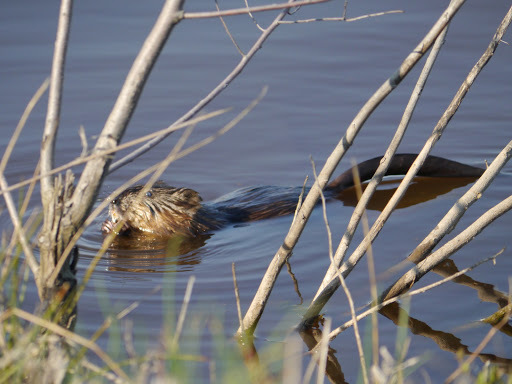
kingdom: Animalia
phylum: Chordata
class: Mammalia
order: Rodentia
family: Cricetidae
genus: Ondatra
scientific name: Ondatra zibethicus
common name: Muskrat
